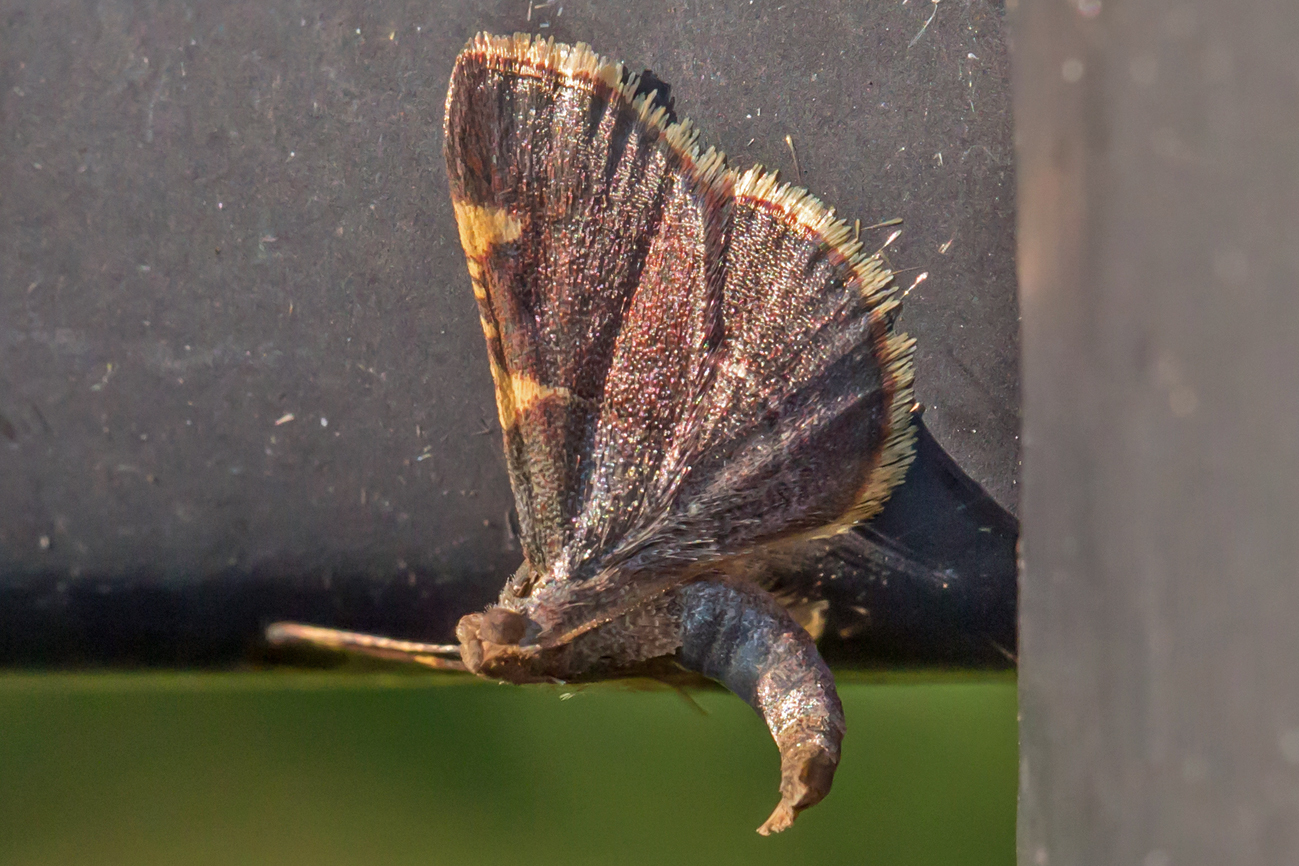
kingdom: Animalia
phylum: Arthropoda
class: Insecta
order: Lepidoptera
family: Pyralidae
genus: Hypsopygia
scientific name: Hypsopygia olinalis
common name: Yellow-fringed dolichomia moth
